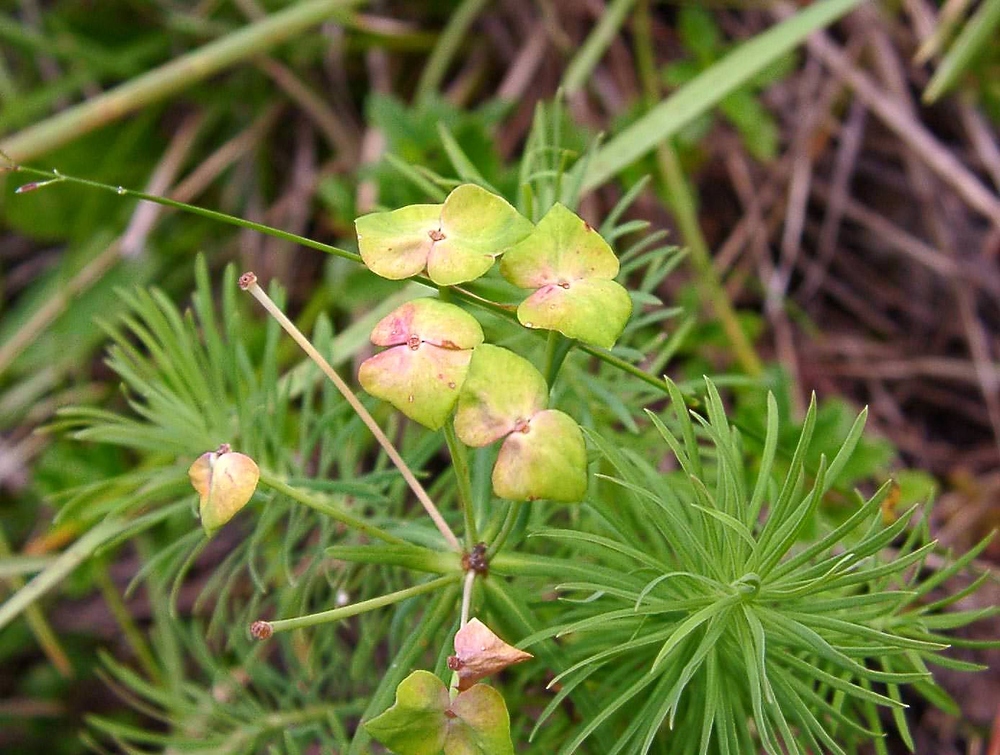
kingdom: Plantae
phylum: Tracheophyta
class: Magnoliopsida
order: Malpighiales
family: Euphorbiaceae
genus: Euphorbia
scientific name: Euphorbia cyparissias
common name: Cypress spurge
